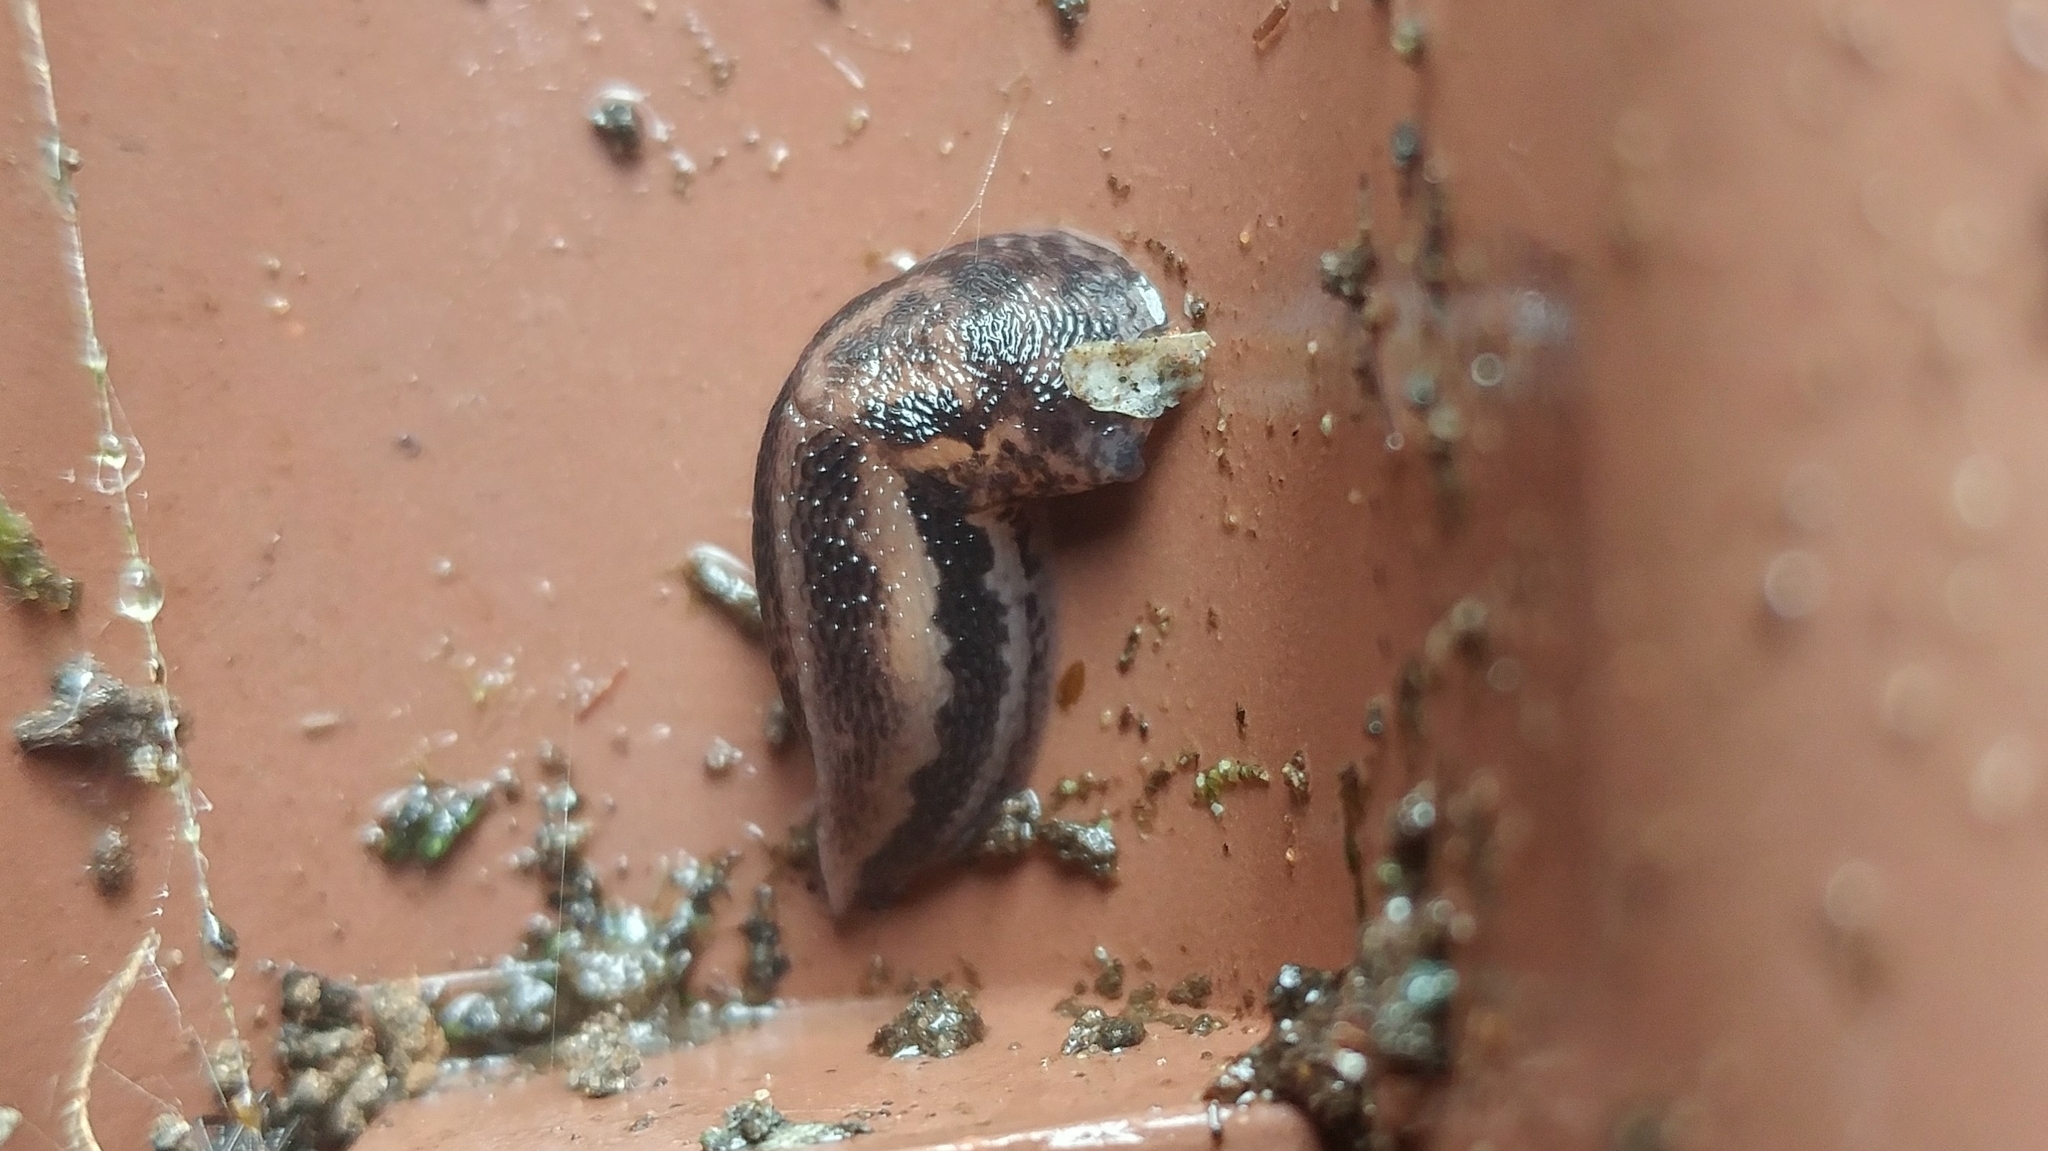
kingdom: Animalia
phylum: Mollusca
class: Gastropoda
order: Stylommatophora
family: Limacidae
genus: Limax
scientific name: Limax maximus
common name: Great grey slug
